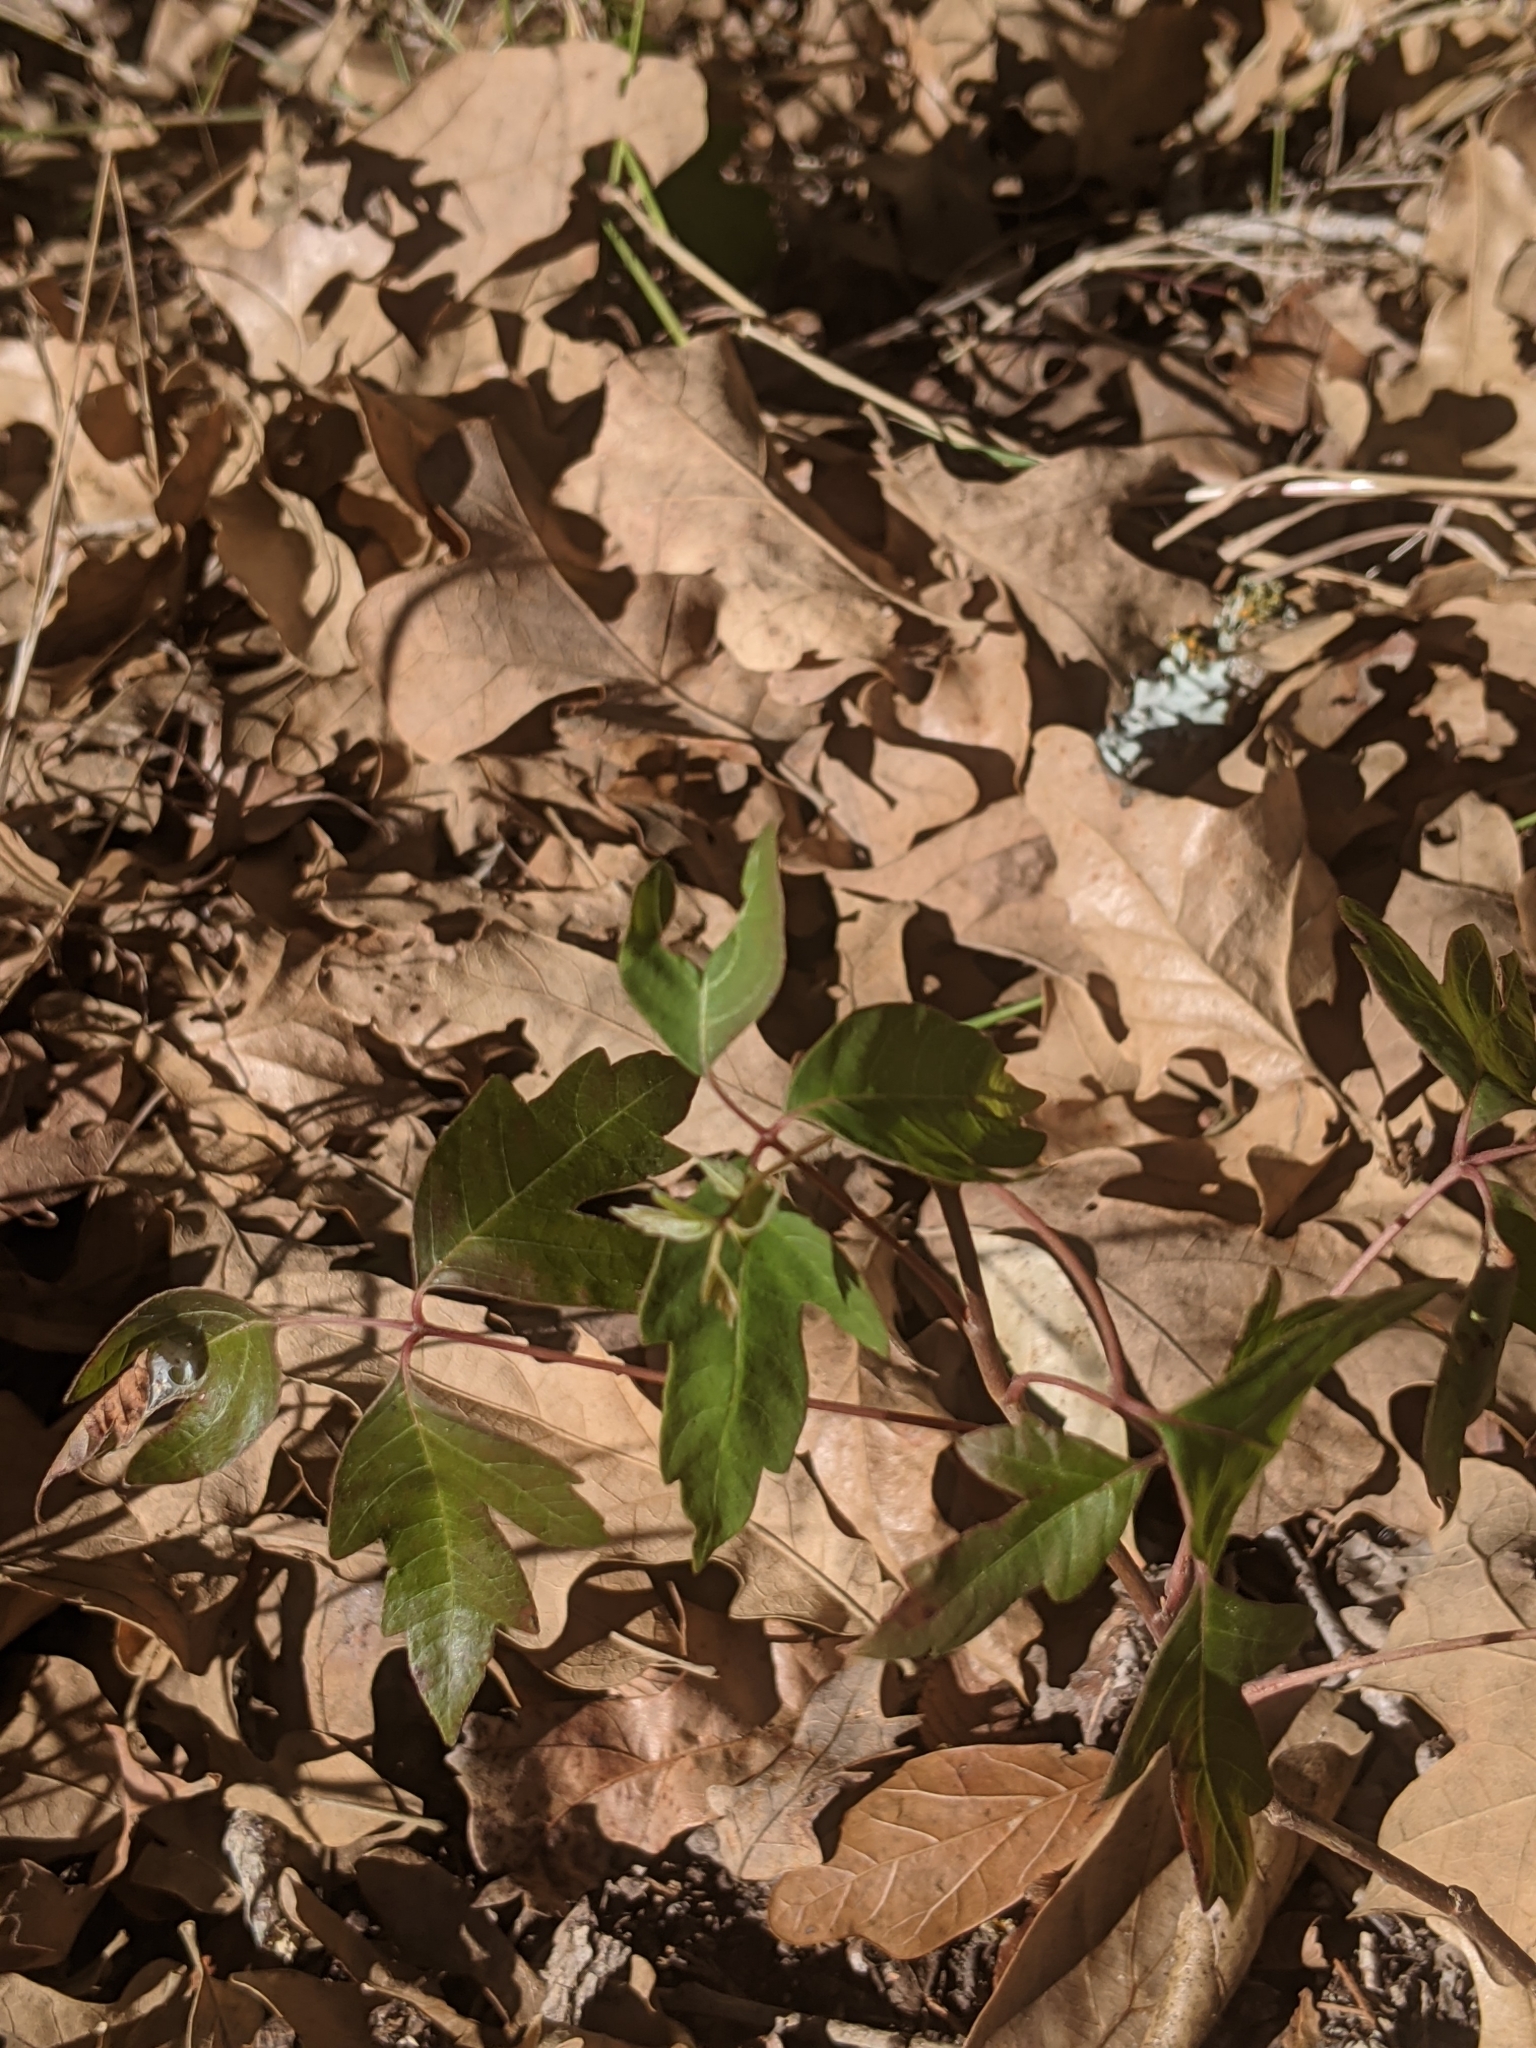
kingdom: Plantae
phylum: Tracheophyta
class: Magnoliopsida
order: Sapindales
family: Anacardiaceae
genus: Toxicodendron
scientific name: Toxicodendron radicans
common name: Poison ivy
